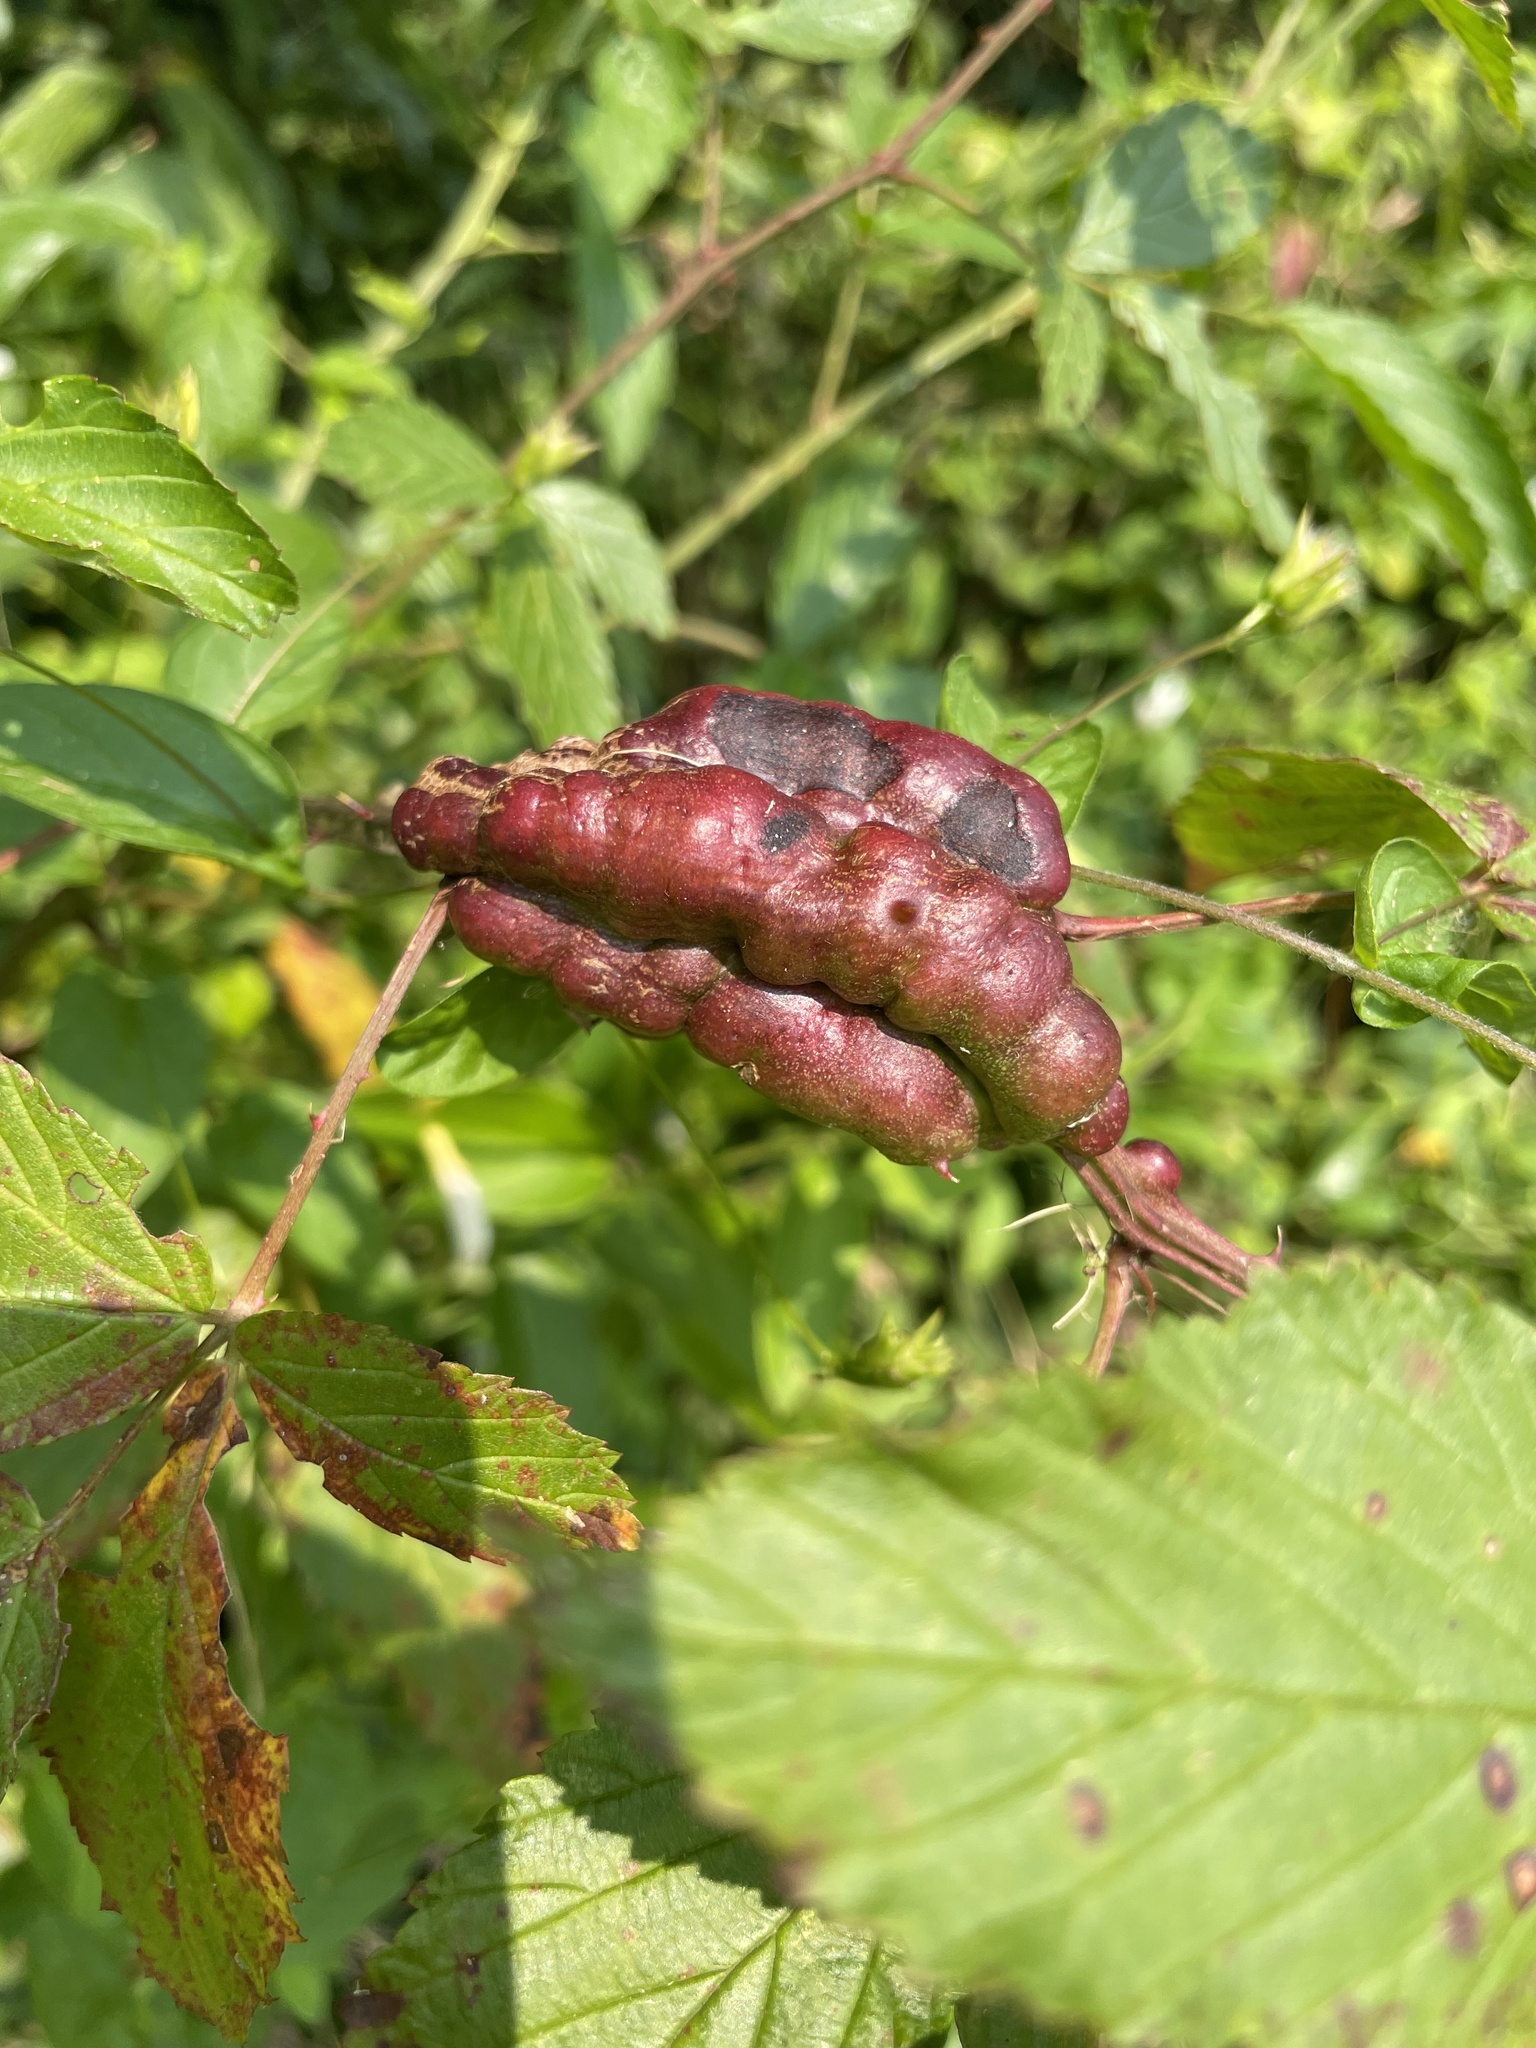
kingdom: Animalia
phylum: Arthropoda
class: Insecta
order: Hymenoptera
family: Cynipidae
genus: Diastrophus
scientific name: Diastrophus
